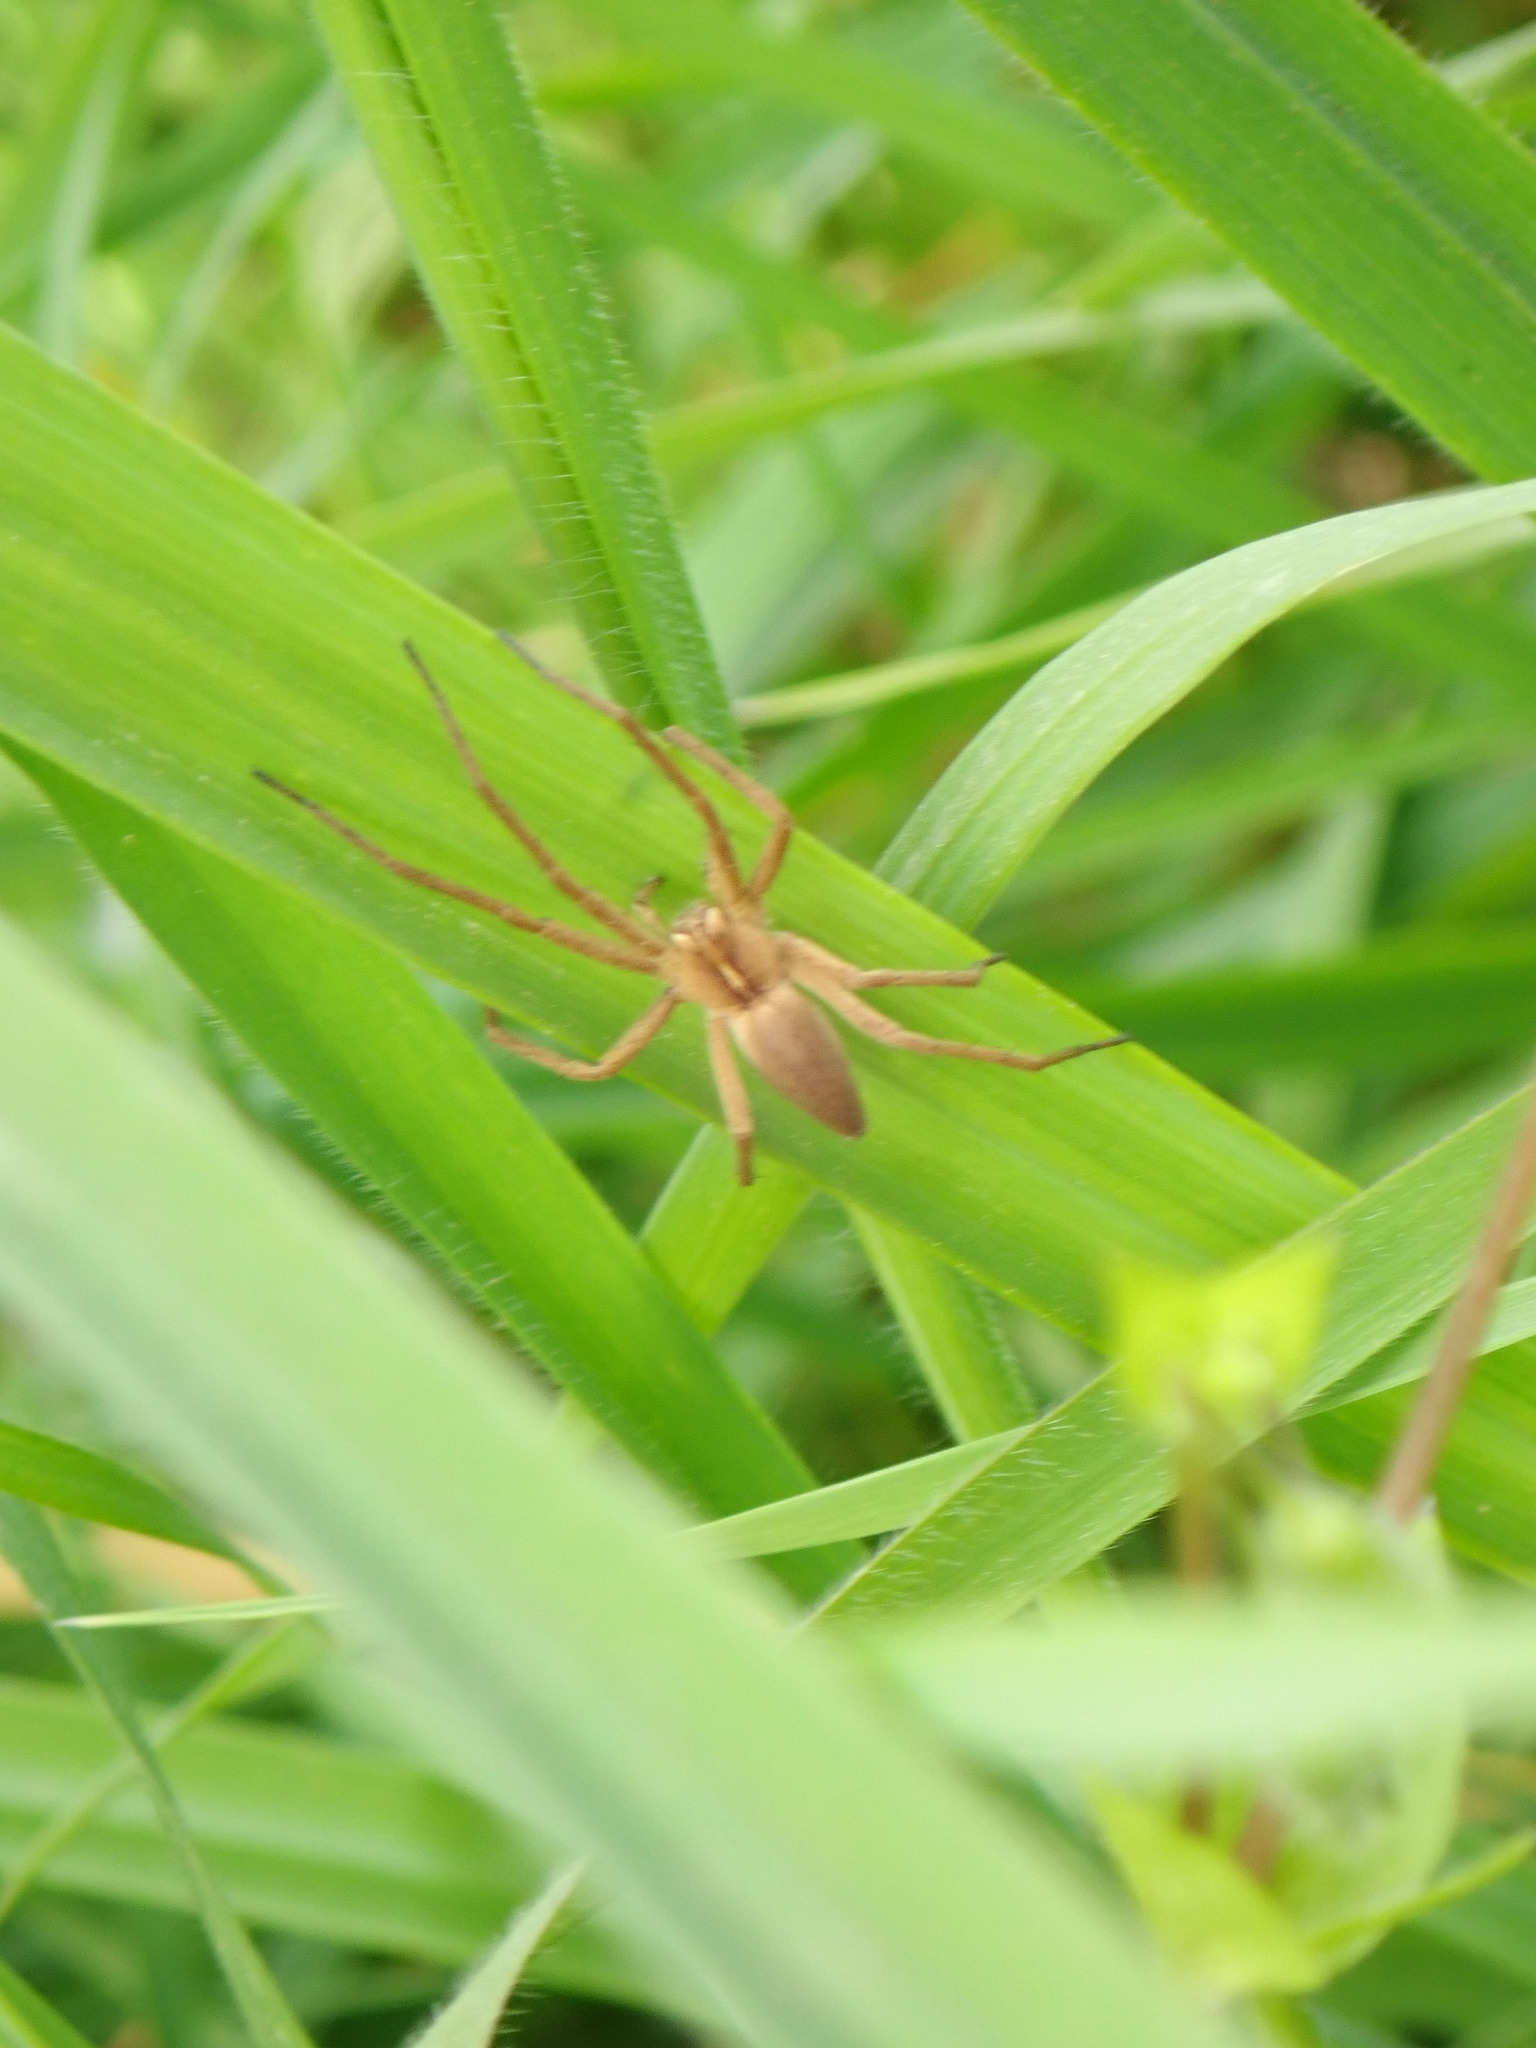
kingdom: Animalia
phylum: Arthropoda
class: Arachnida
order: Araneae
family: Pisauridae
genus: Pisaura
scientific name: Pisaura mirabilis
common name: Tent spider
